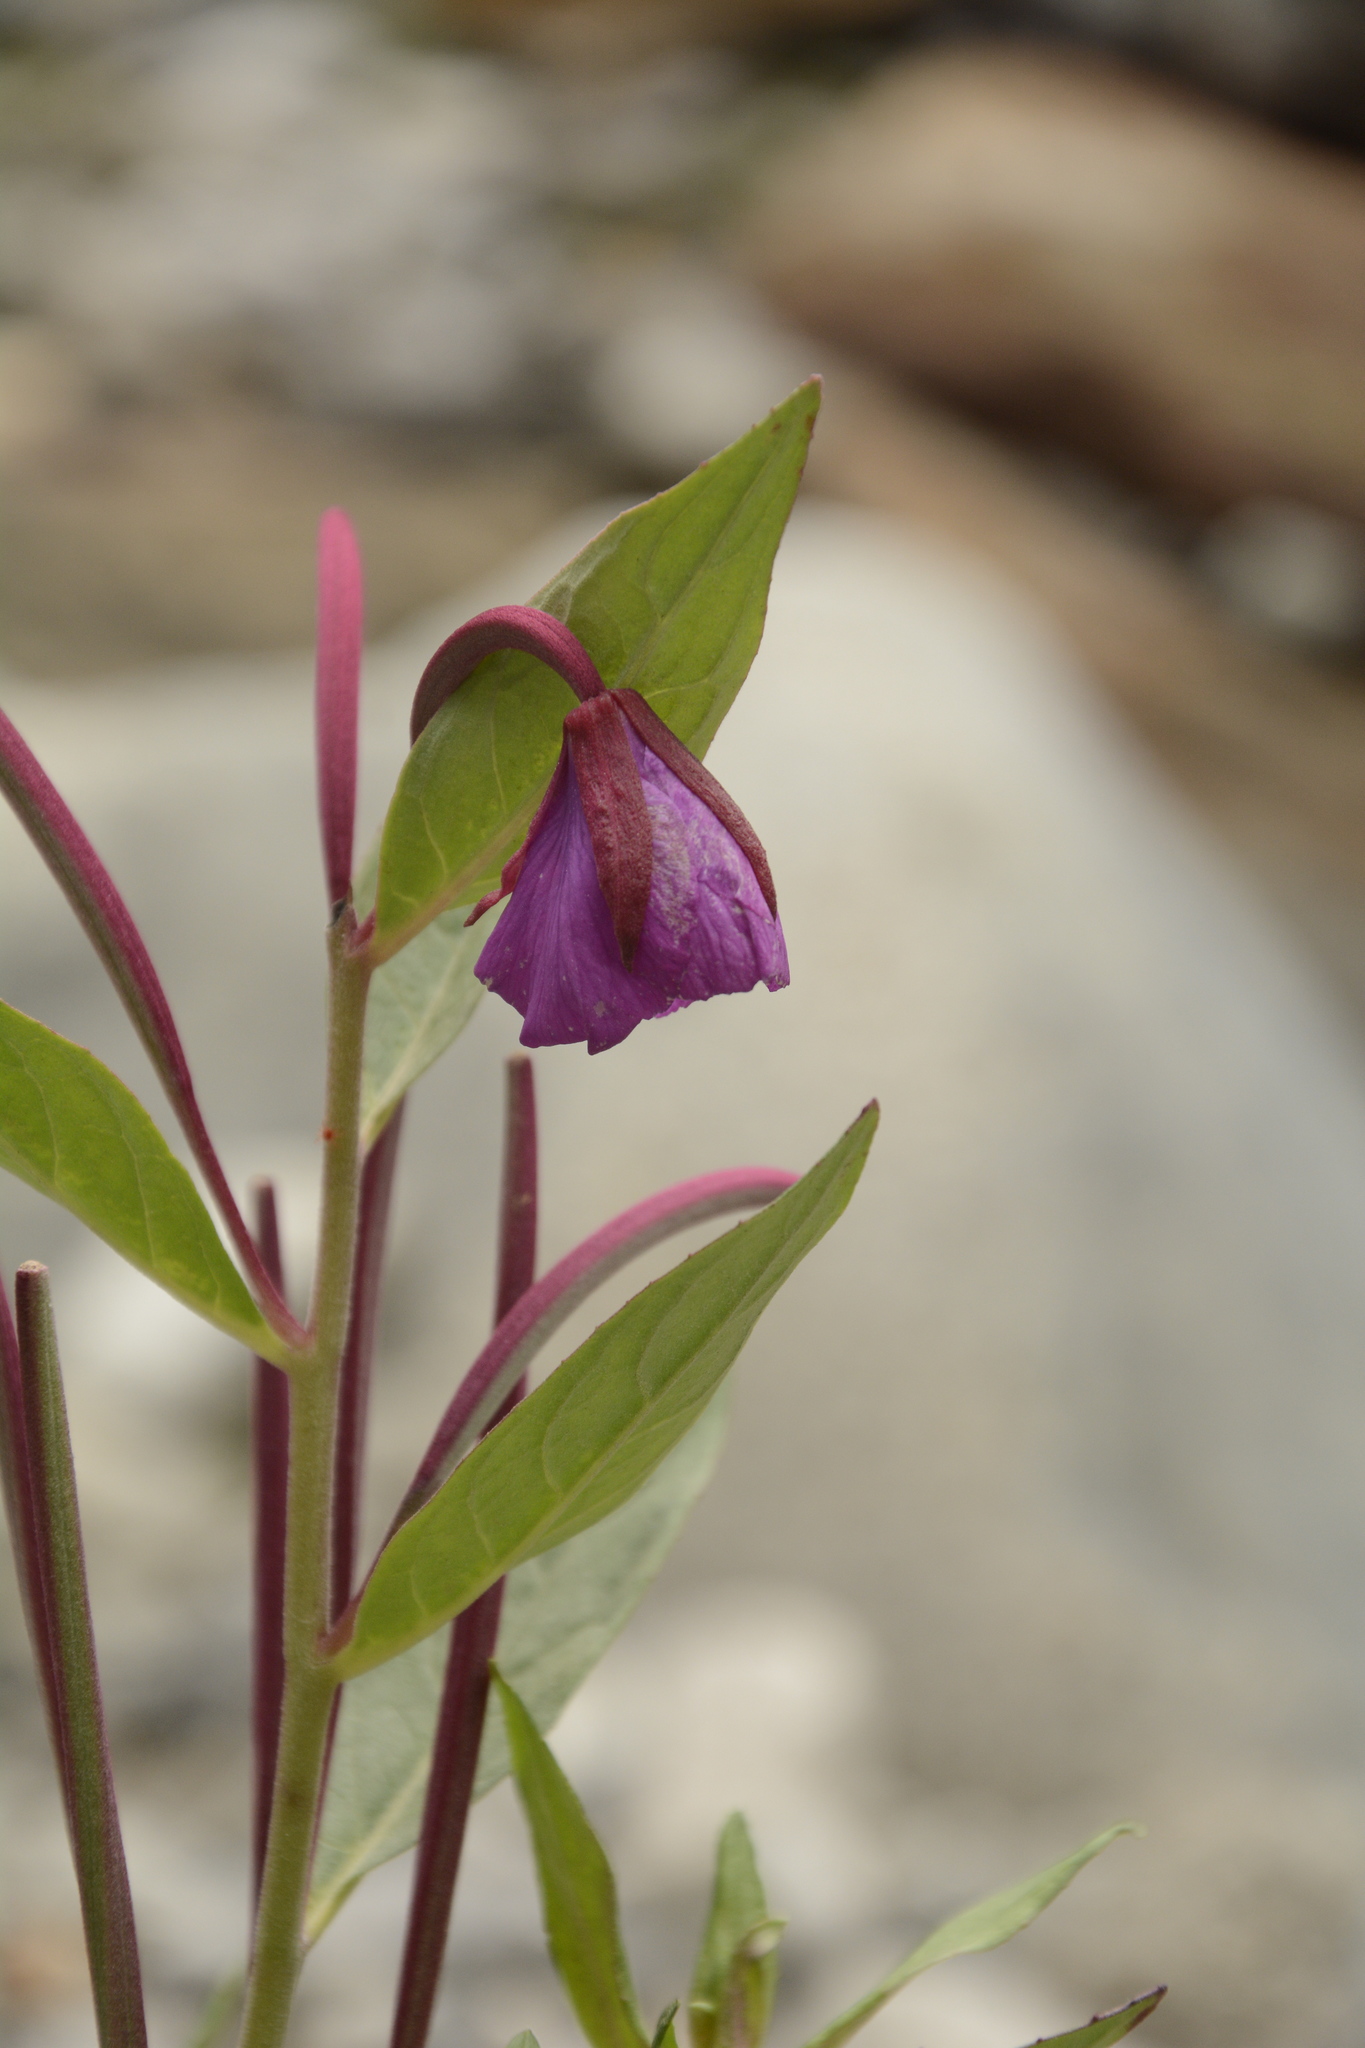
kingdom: Plantae
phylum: Tracheophyta
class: Magnoliopsida
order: Myrtales
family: Onagraceae
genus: Chamaenerion
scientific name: Chamaenerion latifolium
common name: Dwarf fireweed
